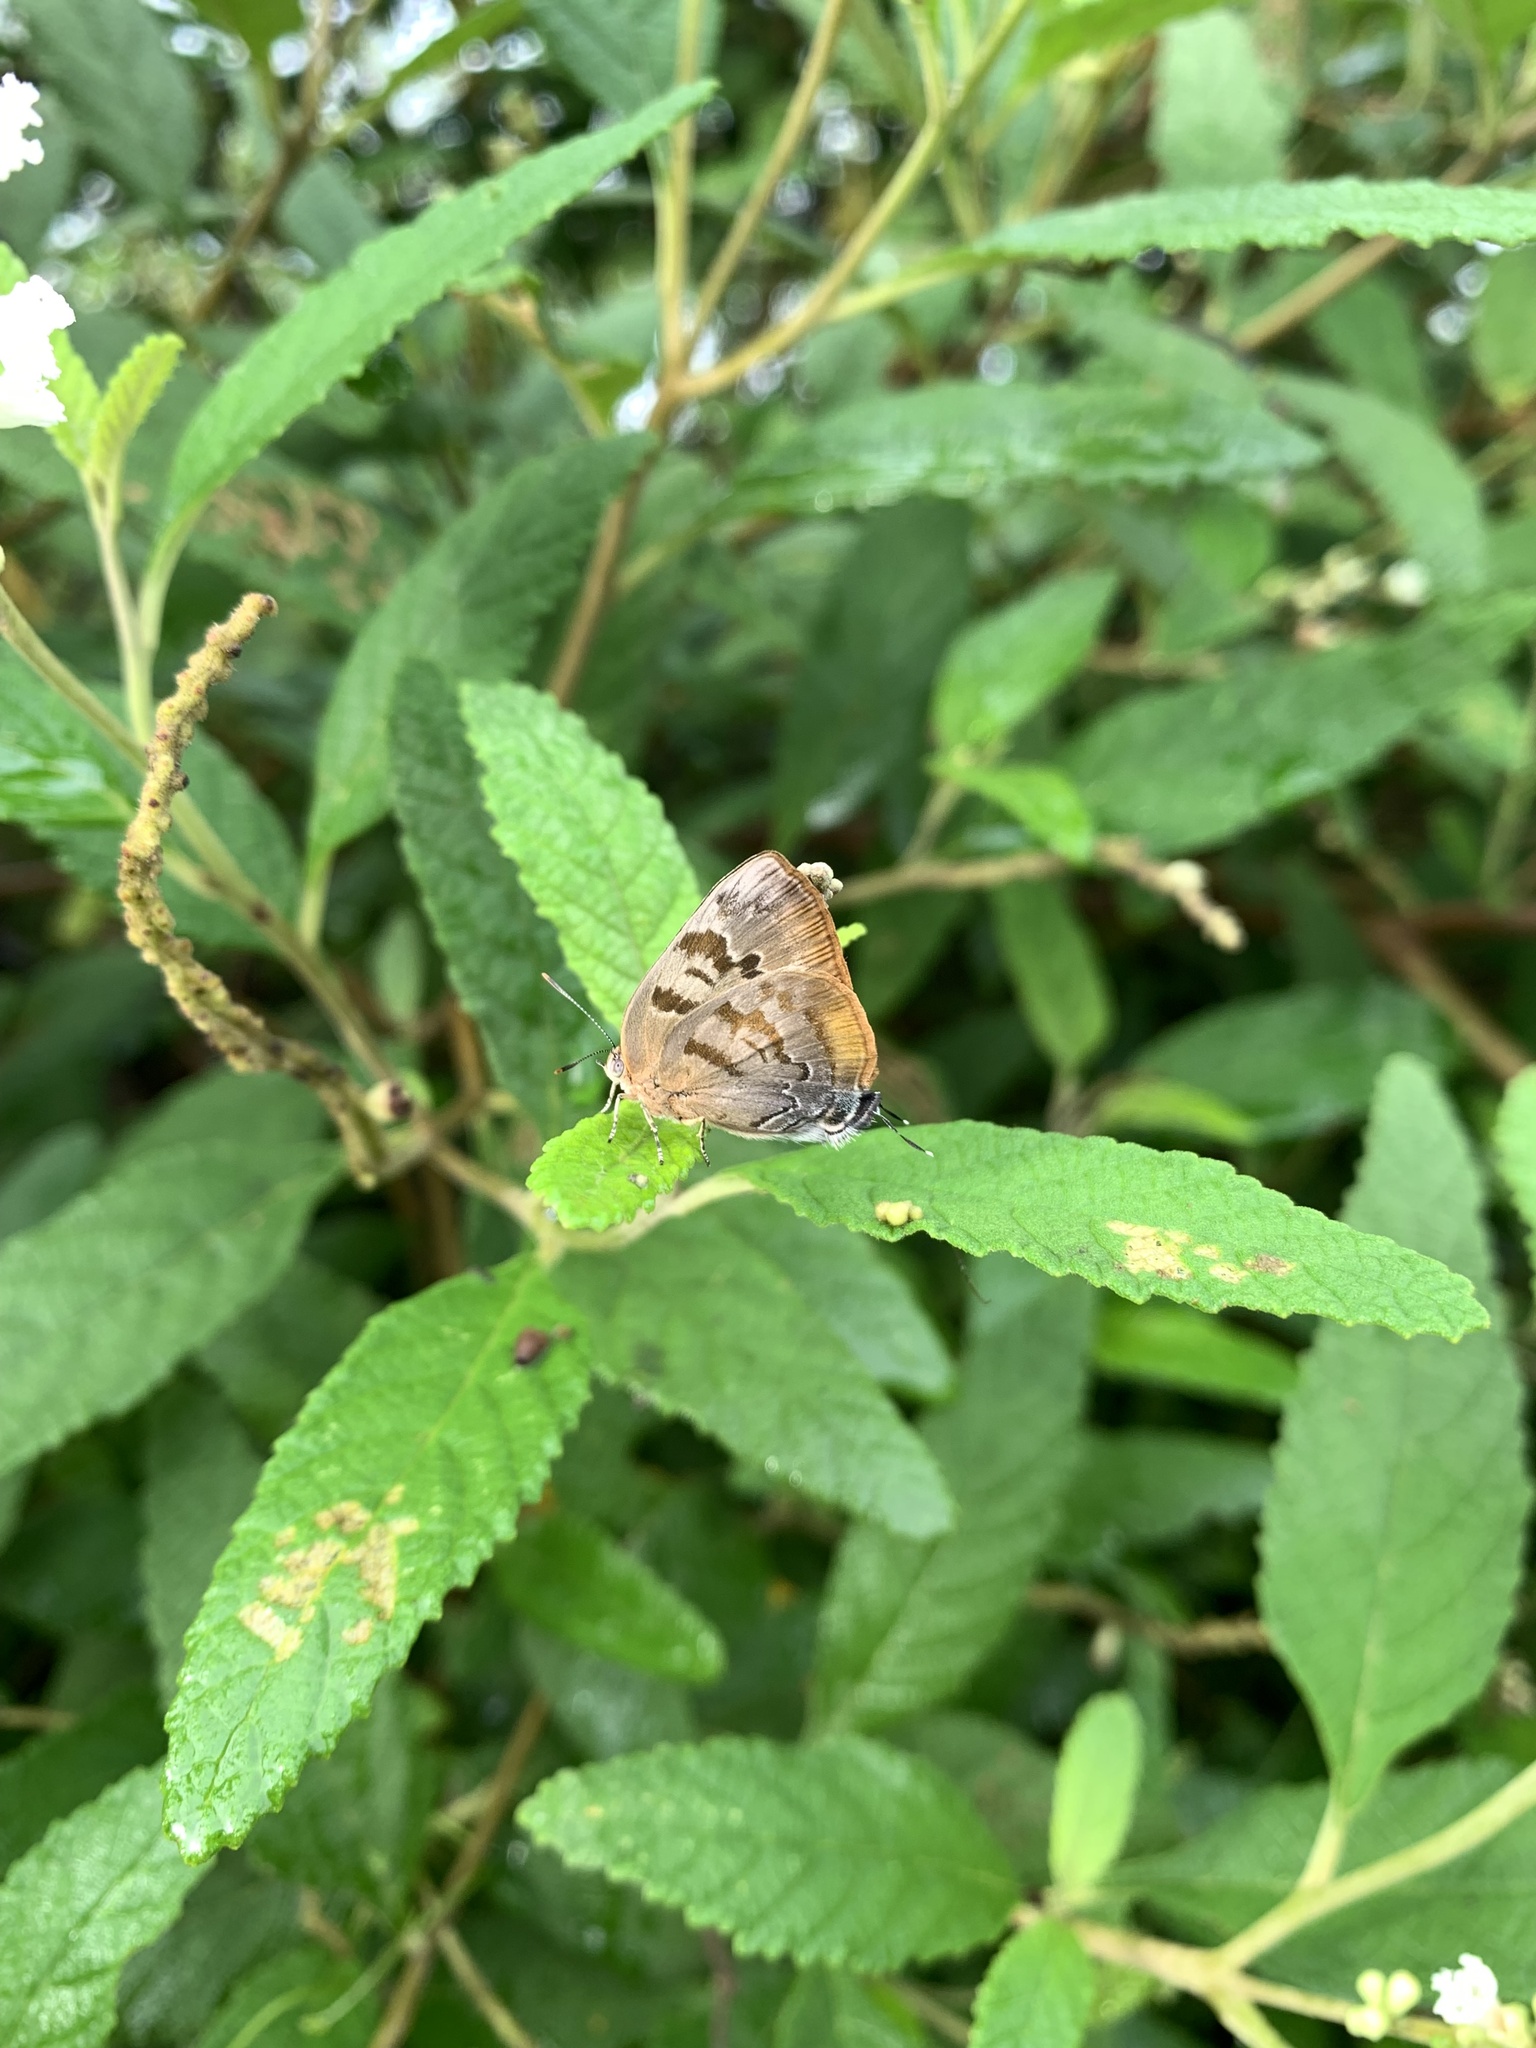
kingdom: Animalia
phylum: Arthropoda
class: Insecta
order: Lepidoptera
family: Lycaenidae
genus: Rekoa
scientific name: Rekoa palegon
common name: Gold-bordered hairstreak
